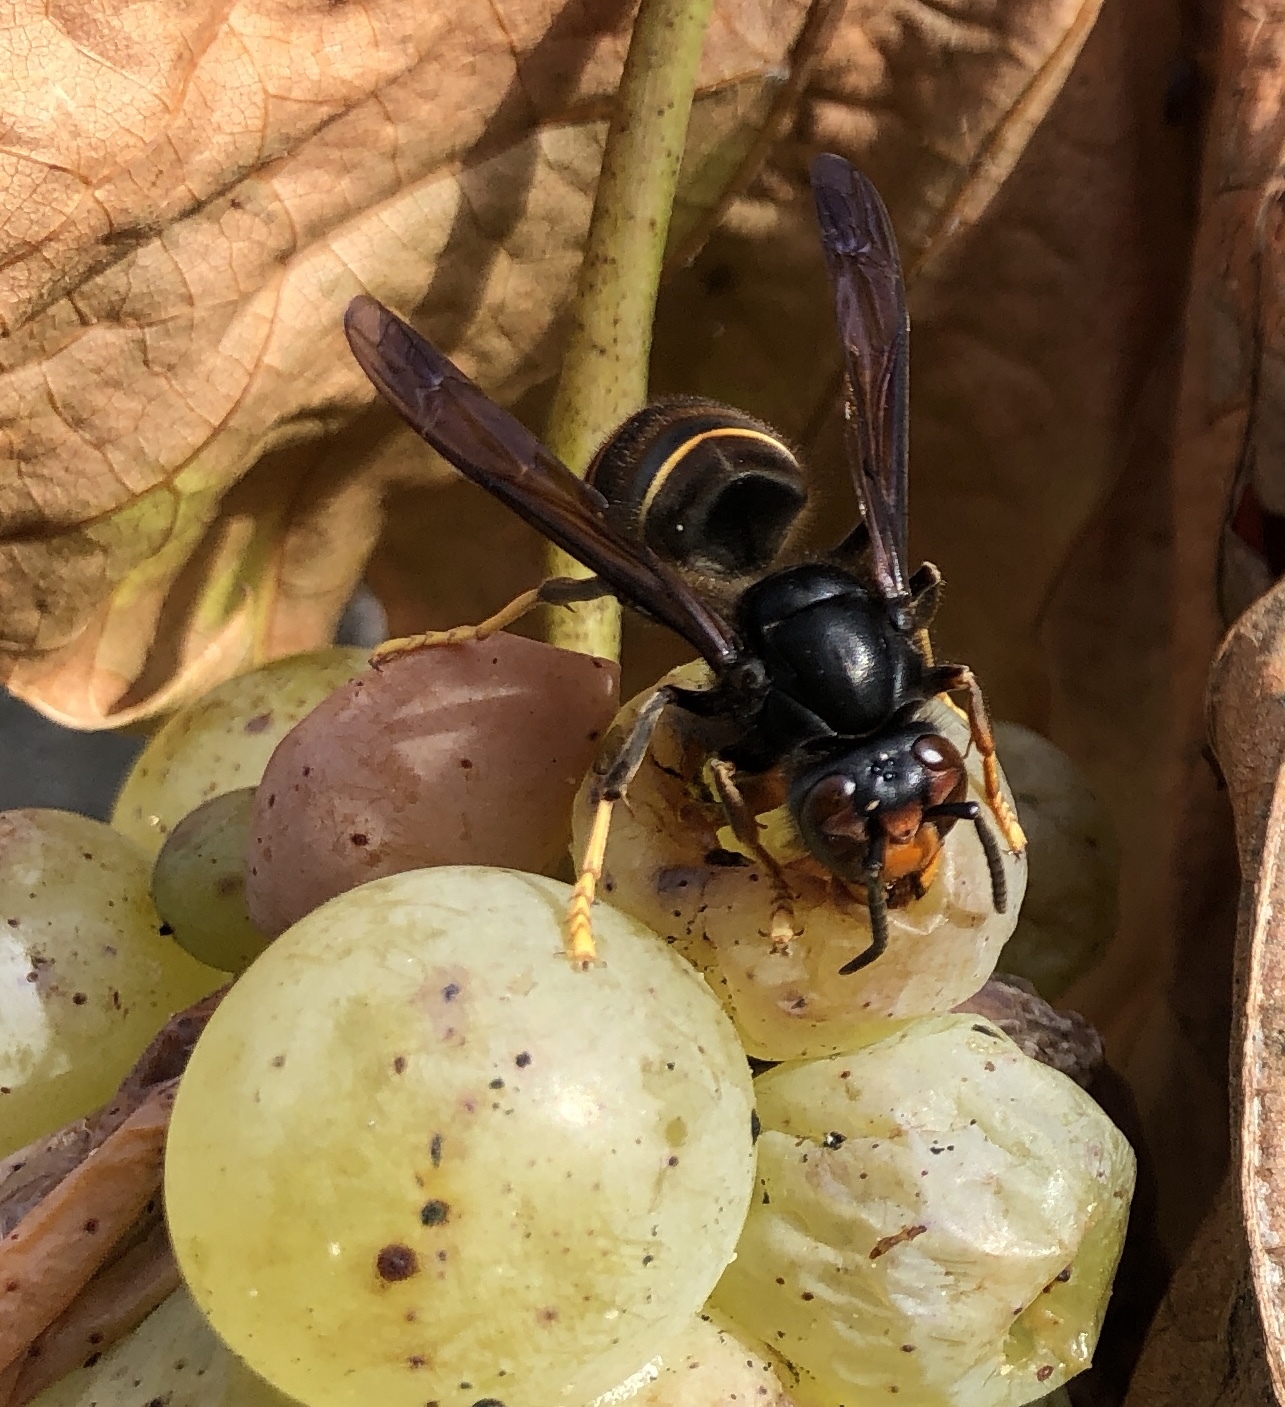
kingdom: Animalia
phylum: Arthropoda
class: Insecta
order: Hymenoptera
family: Vespidae
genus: Vespa
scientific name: Vespa velutina
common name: Asian hornet
